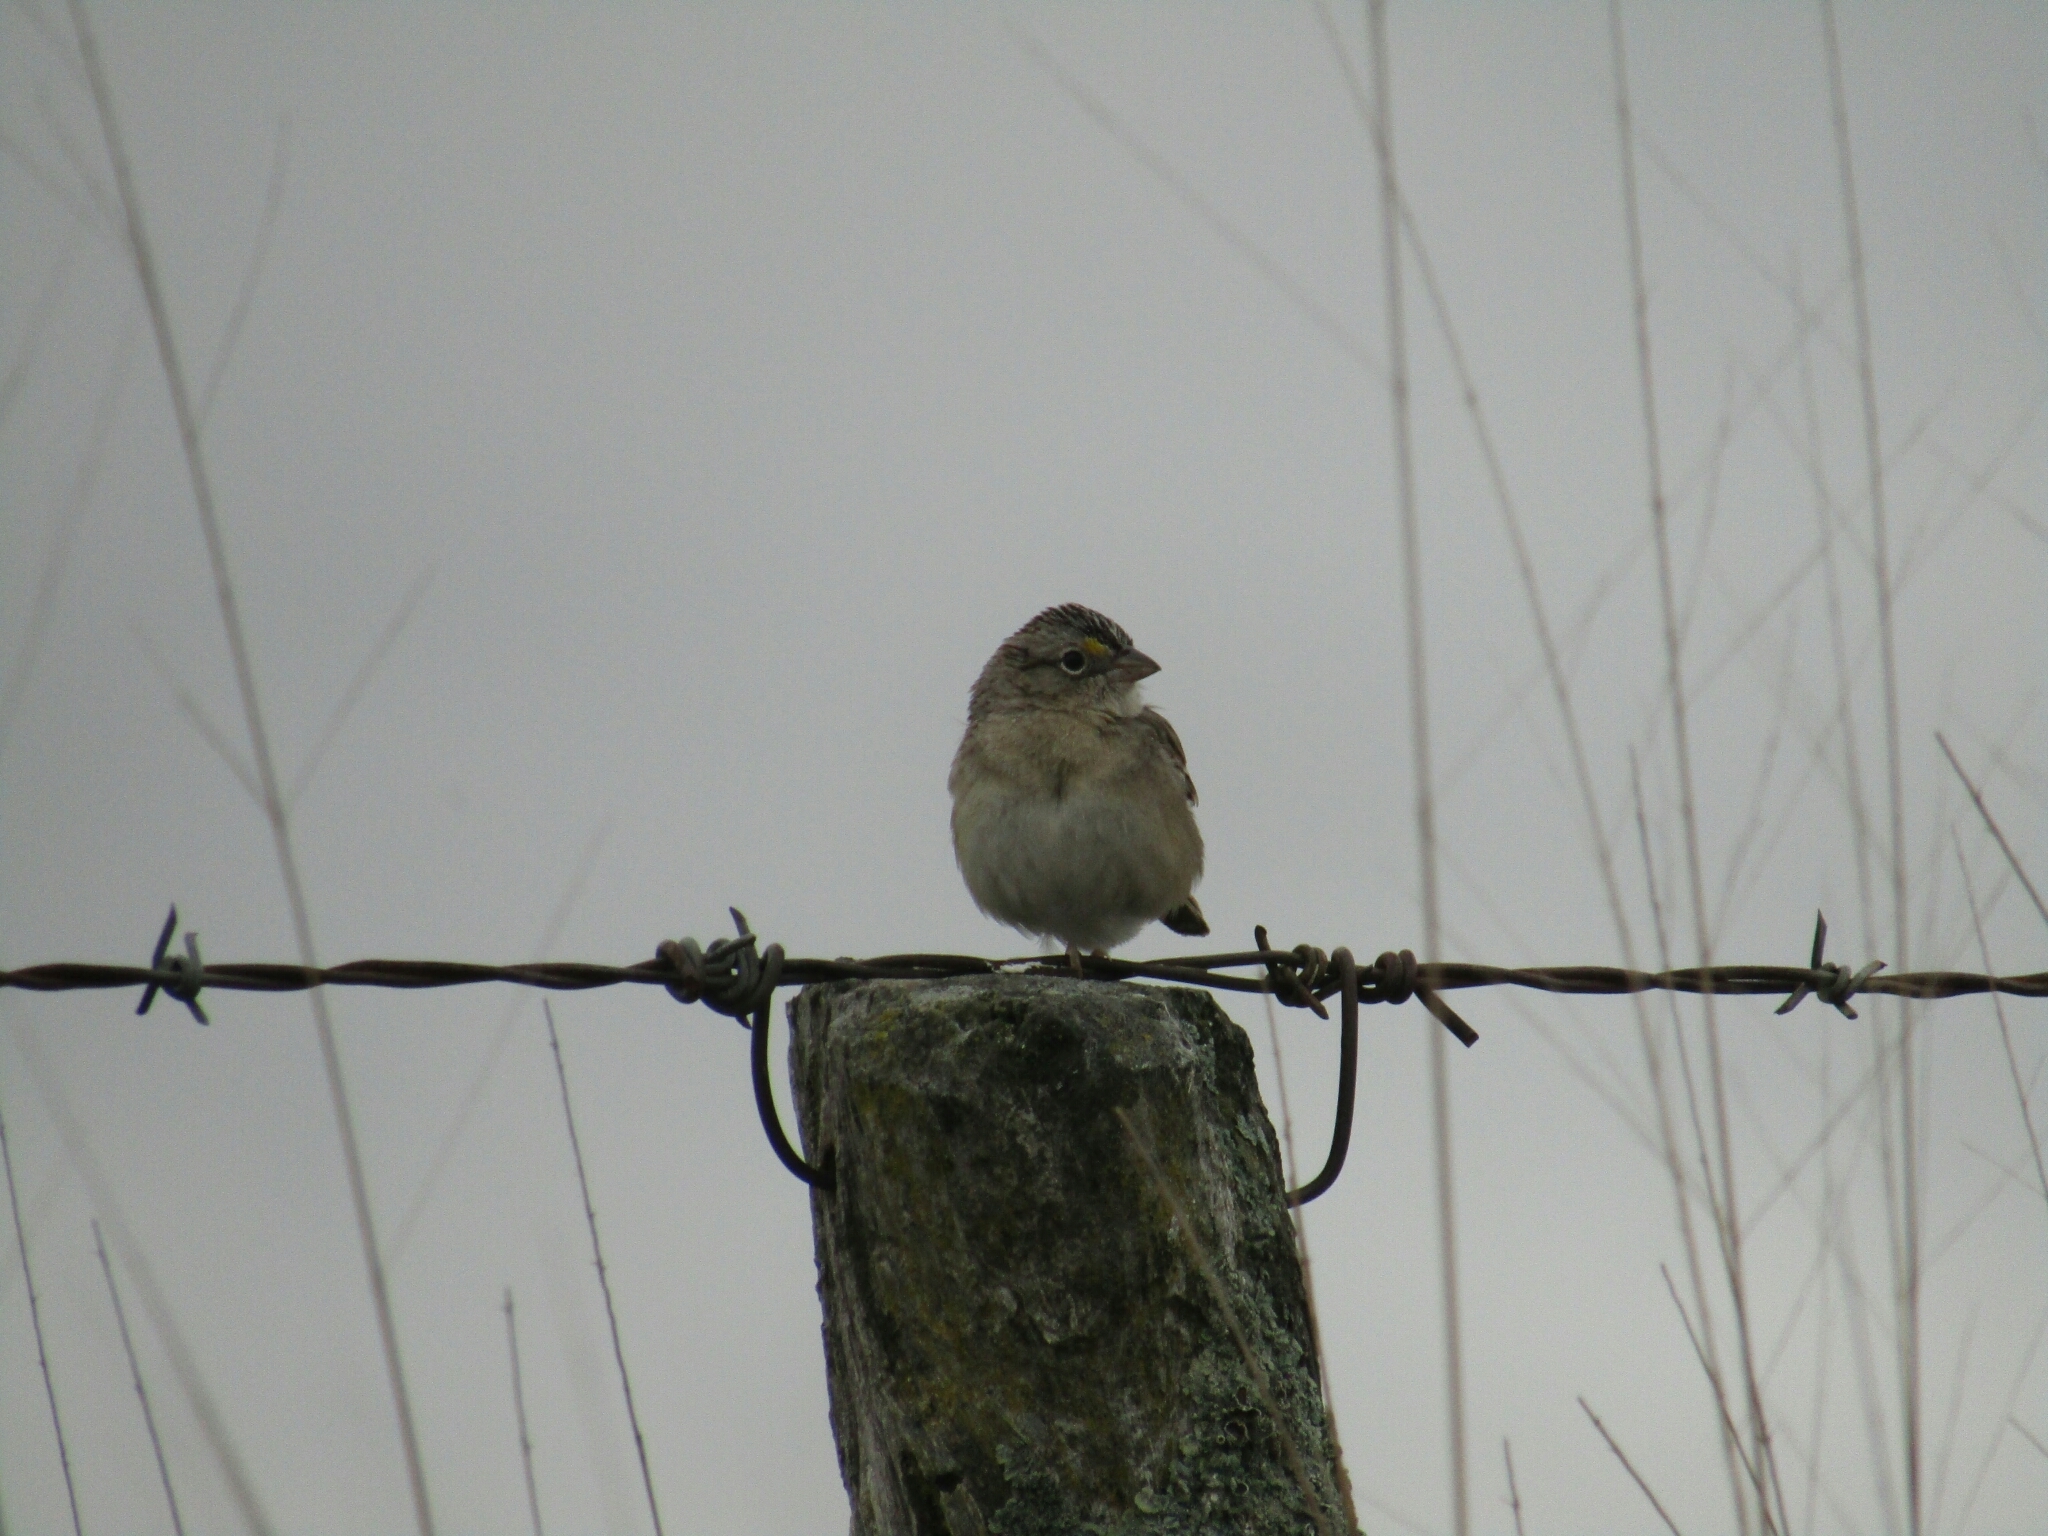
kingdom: Animalia
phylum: Chordata
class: Aves
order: Passeriformes
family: Passerellidae
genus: Ammodramus
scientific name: Ammodramus humeralis
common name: Grassland sparrow
